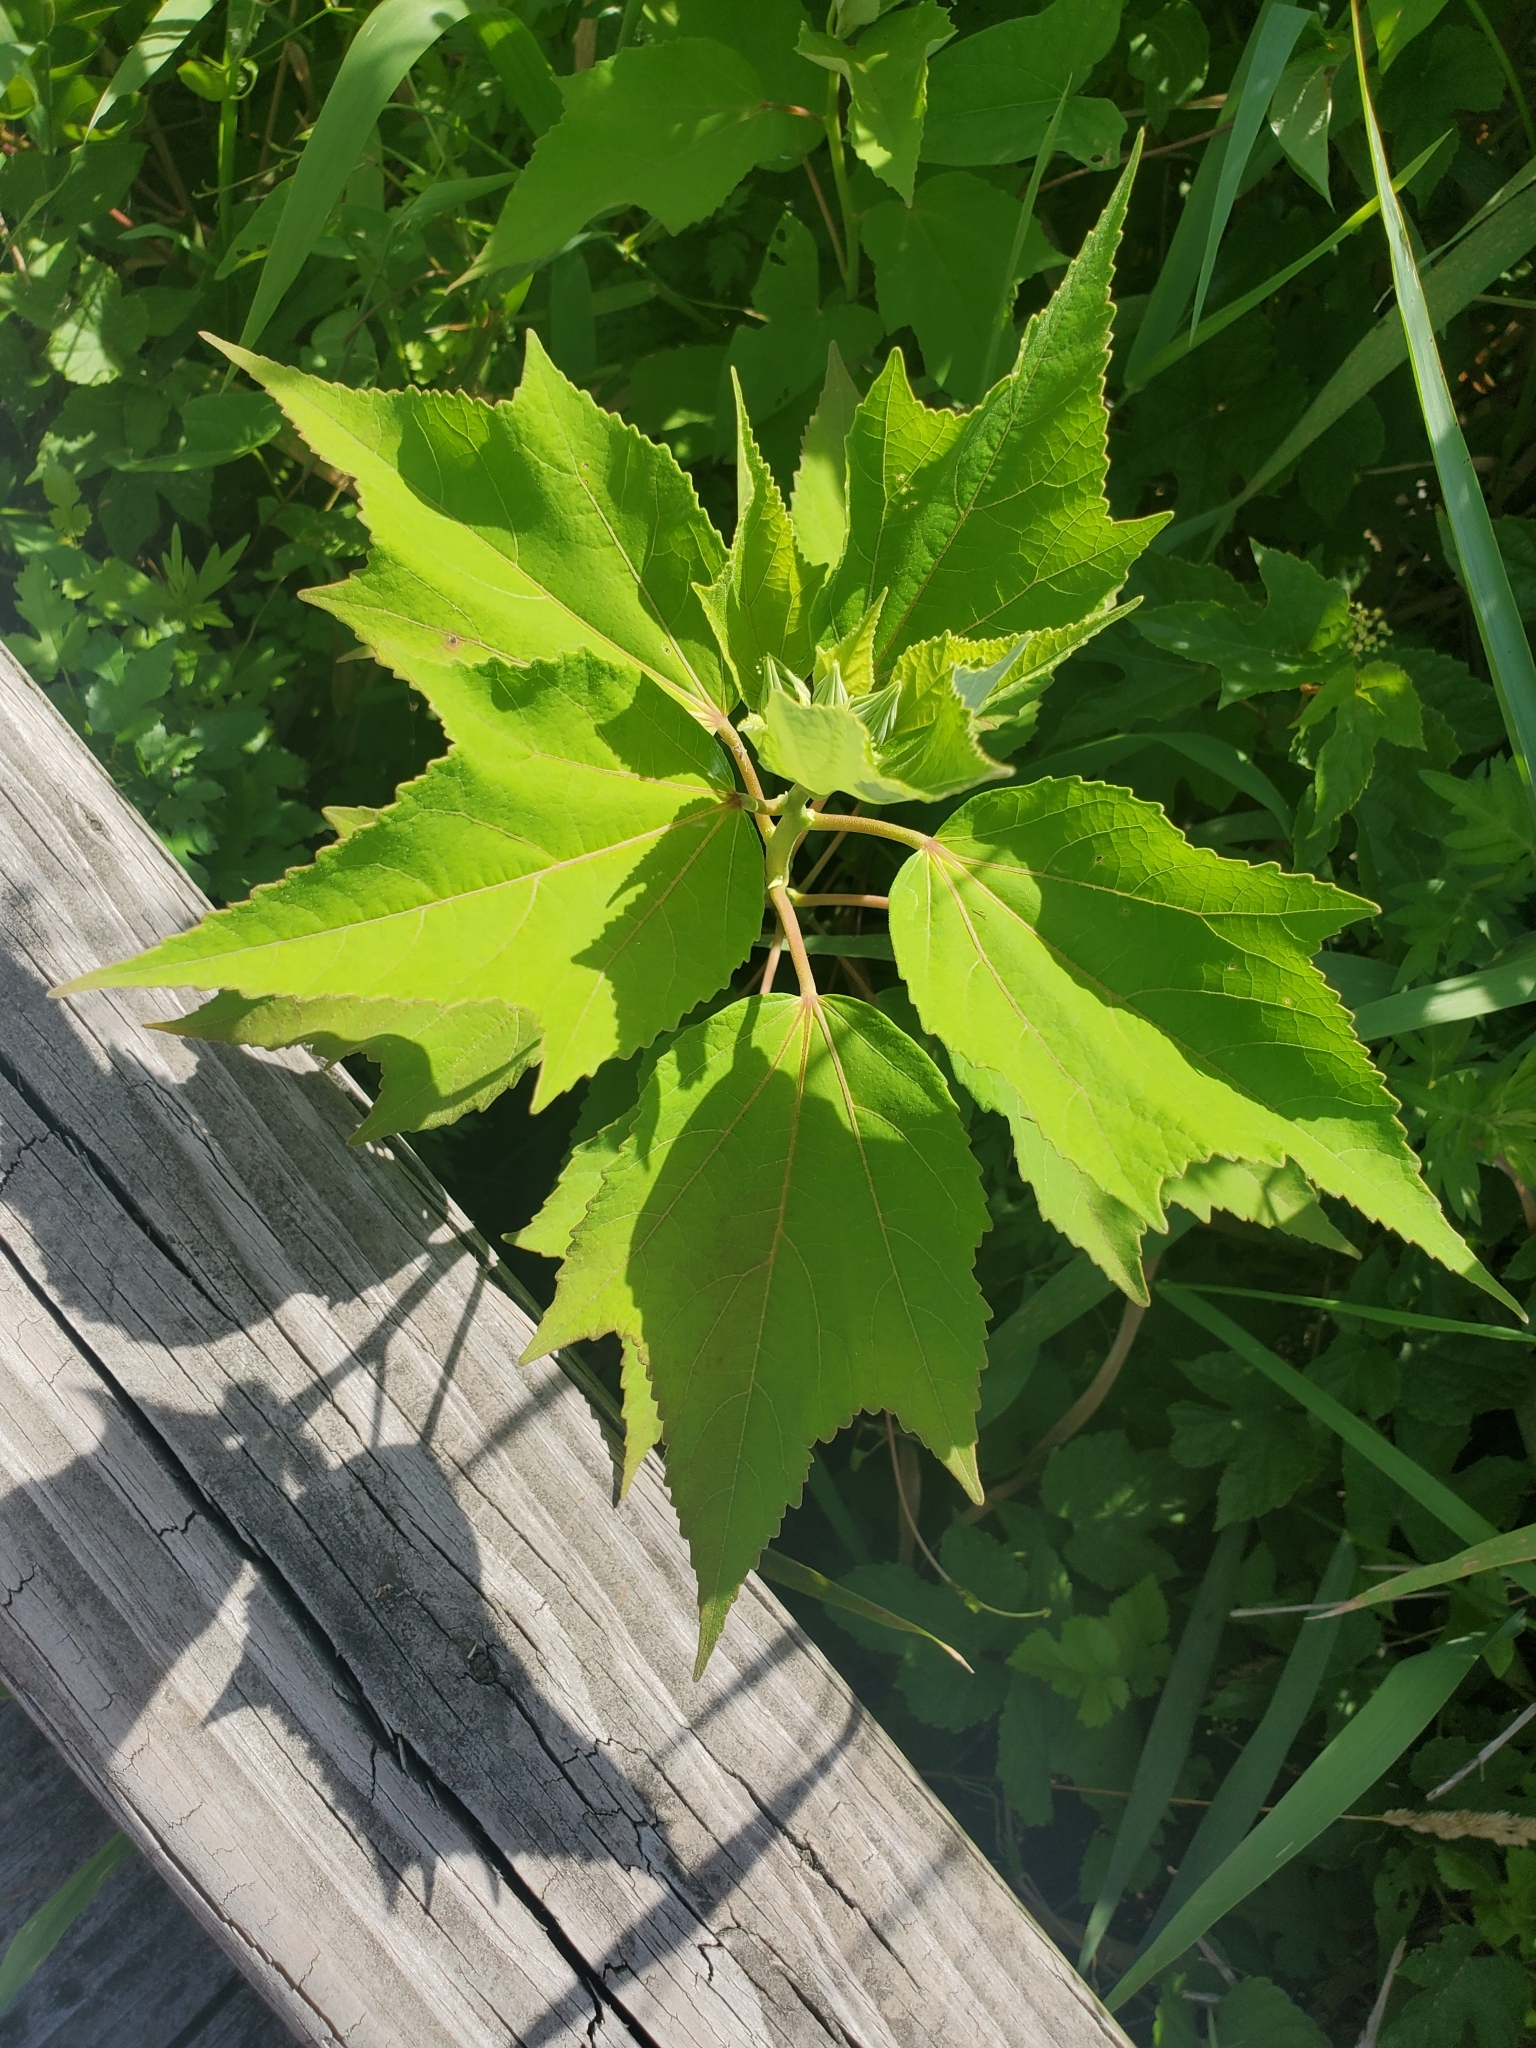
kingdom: Plantae
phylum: Tracheophyta
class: Magnoliopsida
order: Malvales
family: Malvaceae
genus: Hibiscus
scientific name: Hibiscus moscheutos
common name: Common rose-mallow
